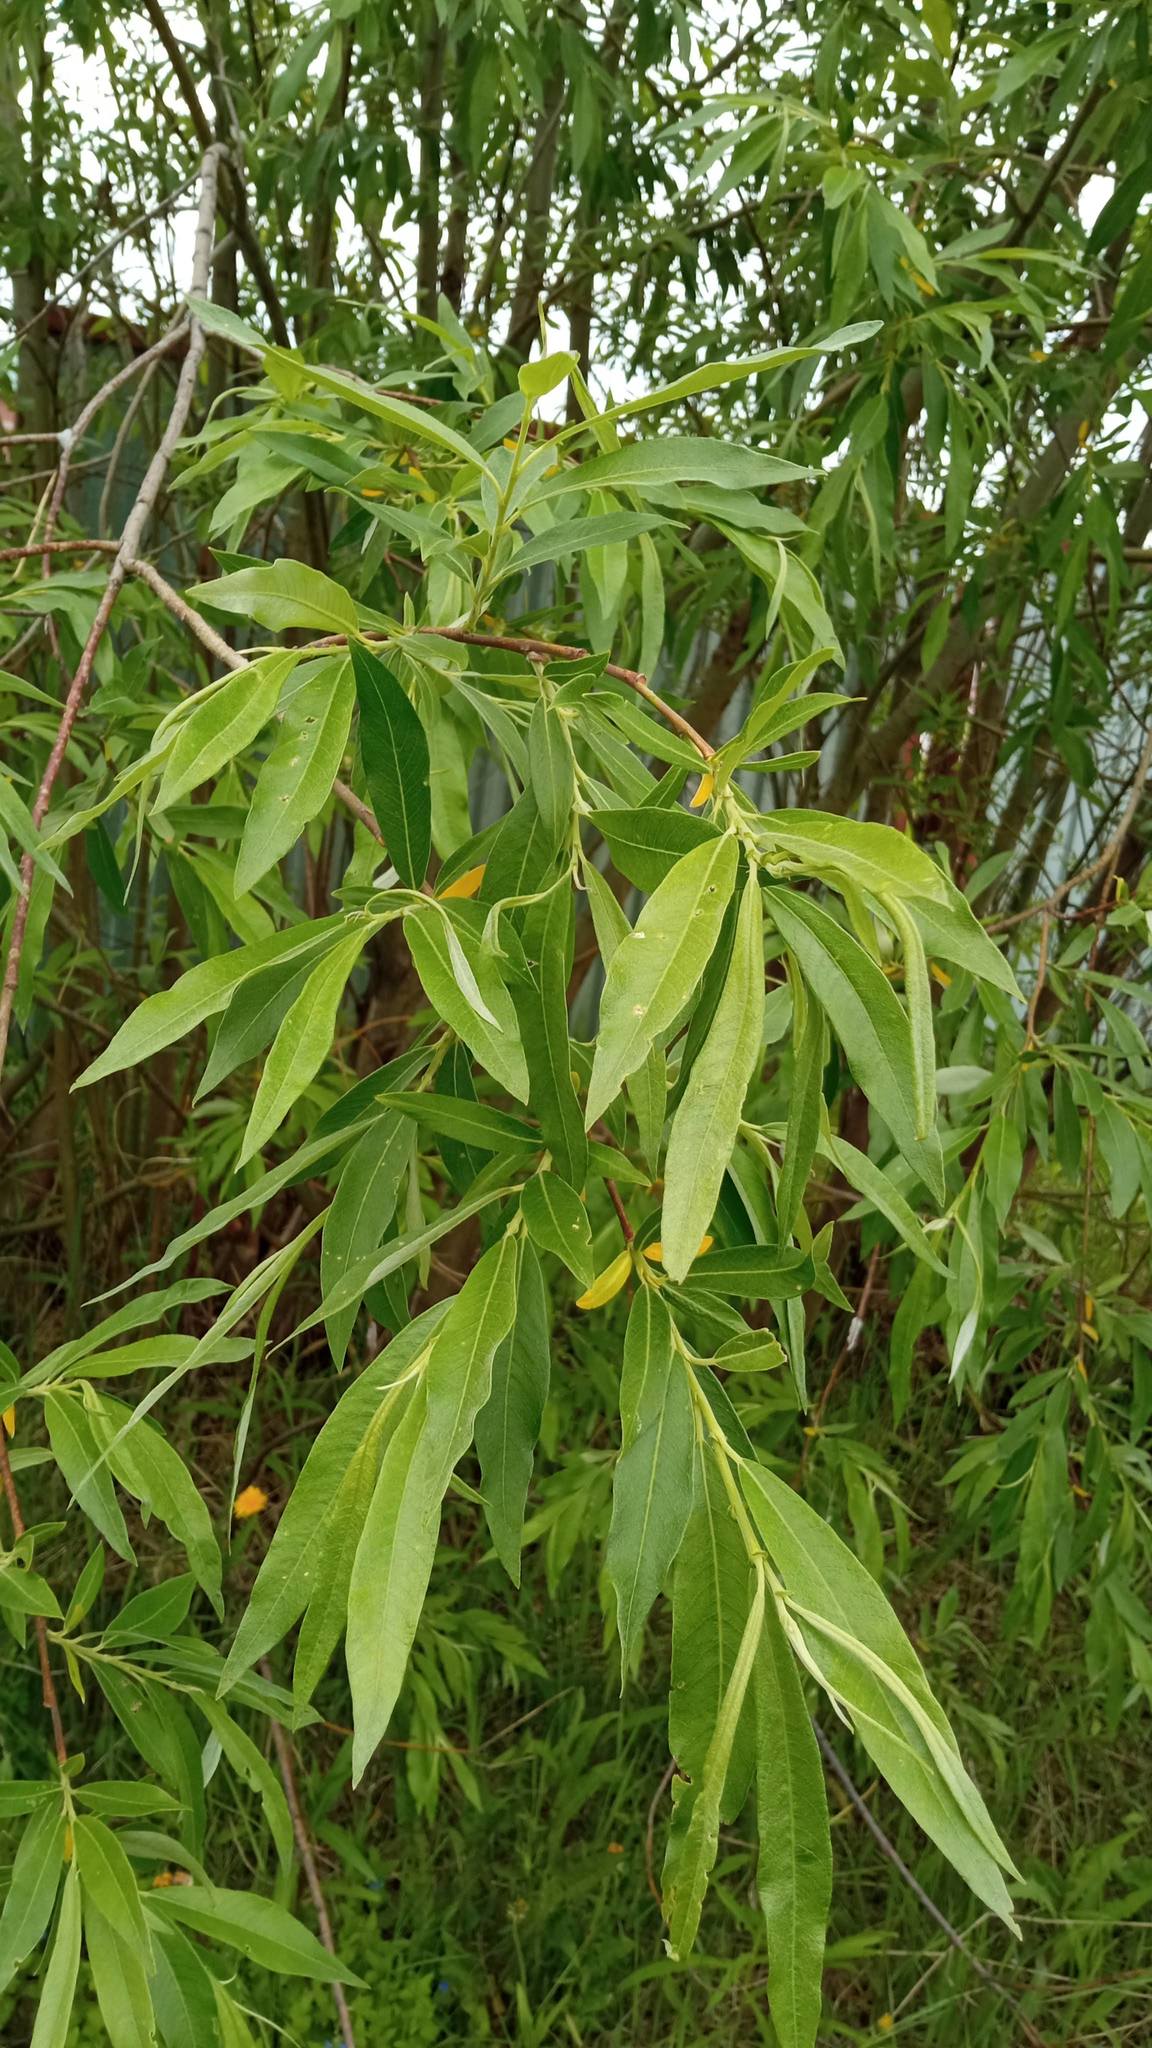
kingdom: Plantae
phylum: Tracheophyta
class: Magnoliopsida
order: Malpighiales
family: Salicaceae
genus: Salix
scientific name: Salix gmelinii
